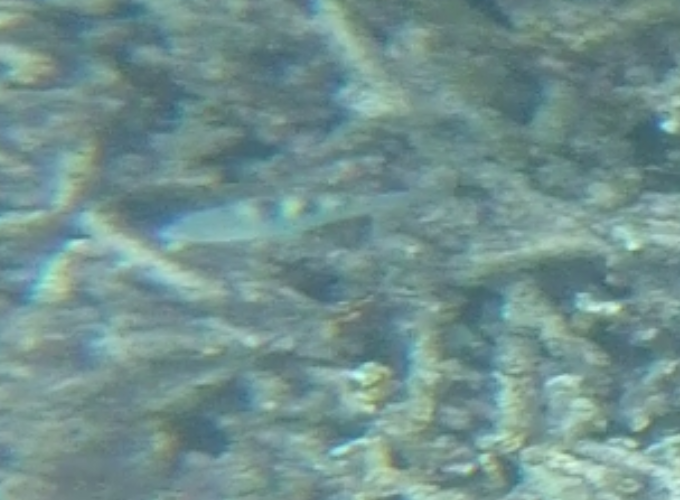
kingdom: Animalia
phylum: Chordata
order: Perciformes
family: Scaridae
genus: Scarus
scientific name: Scarus scaber
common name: Dusky-capped parrotfish
